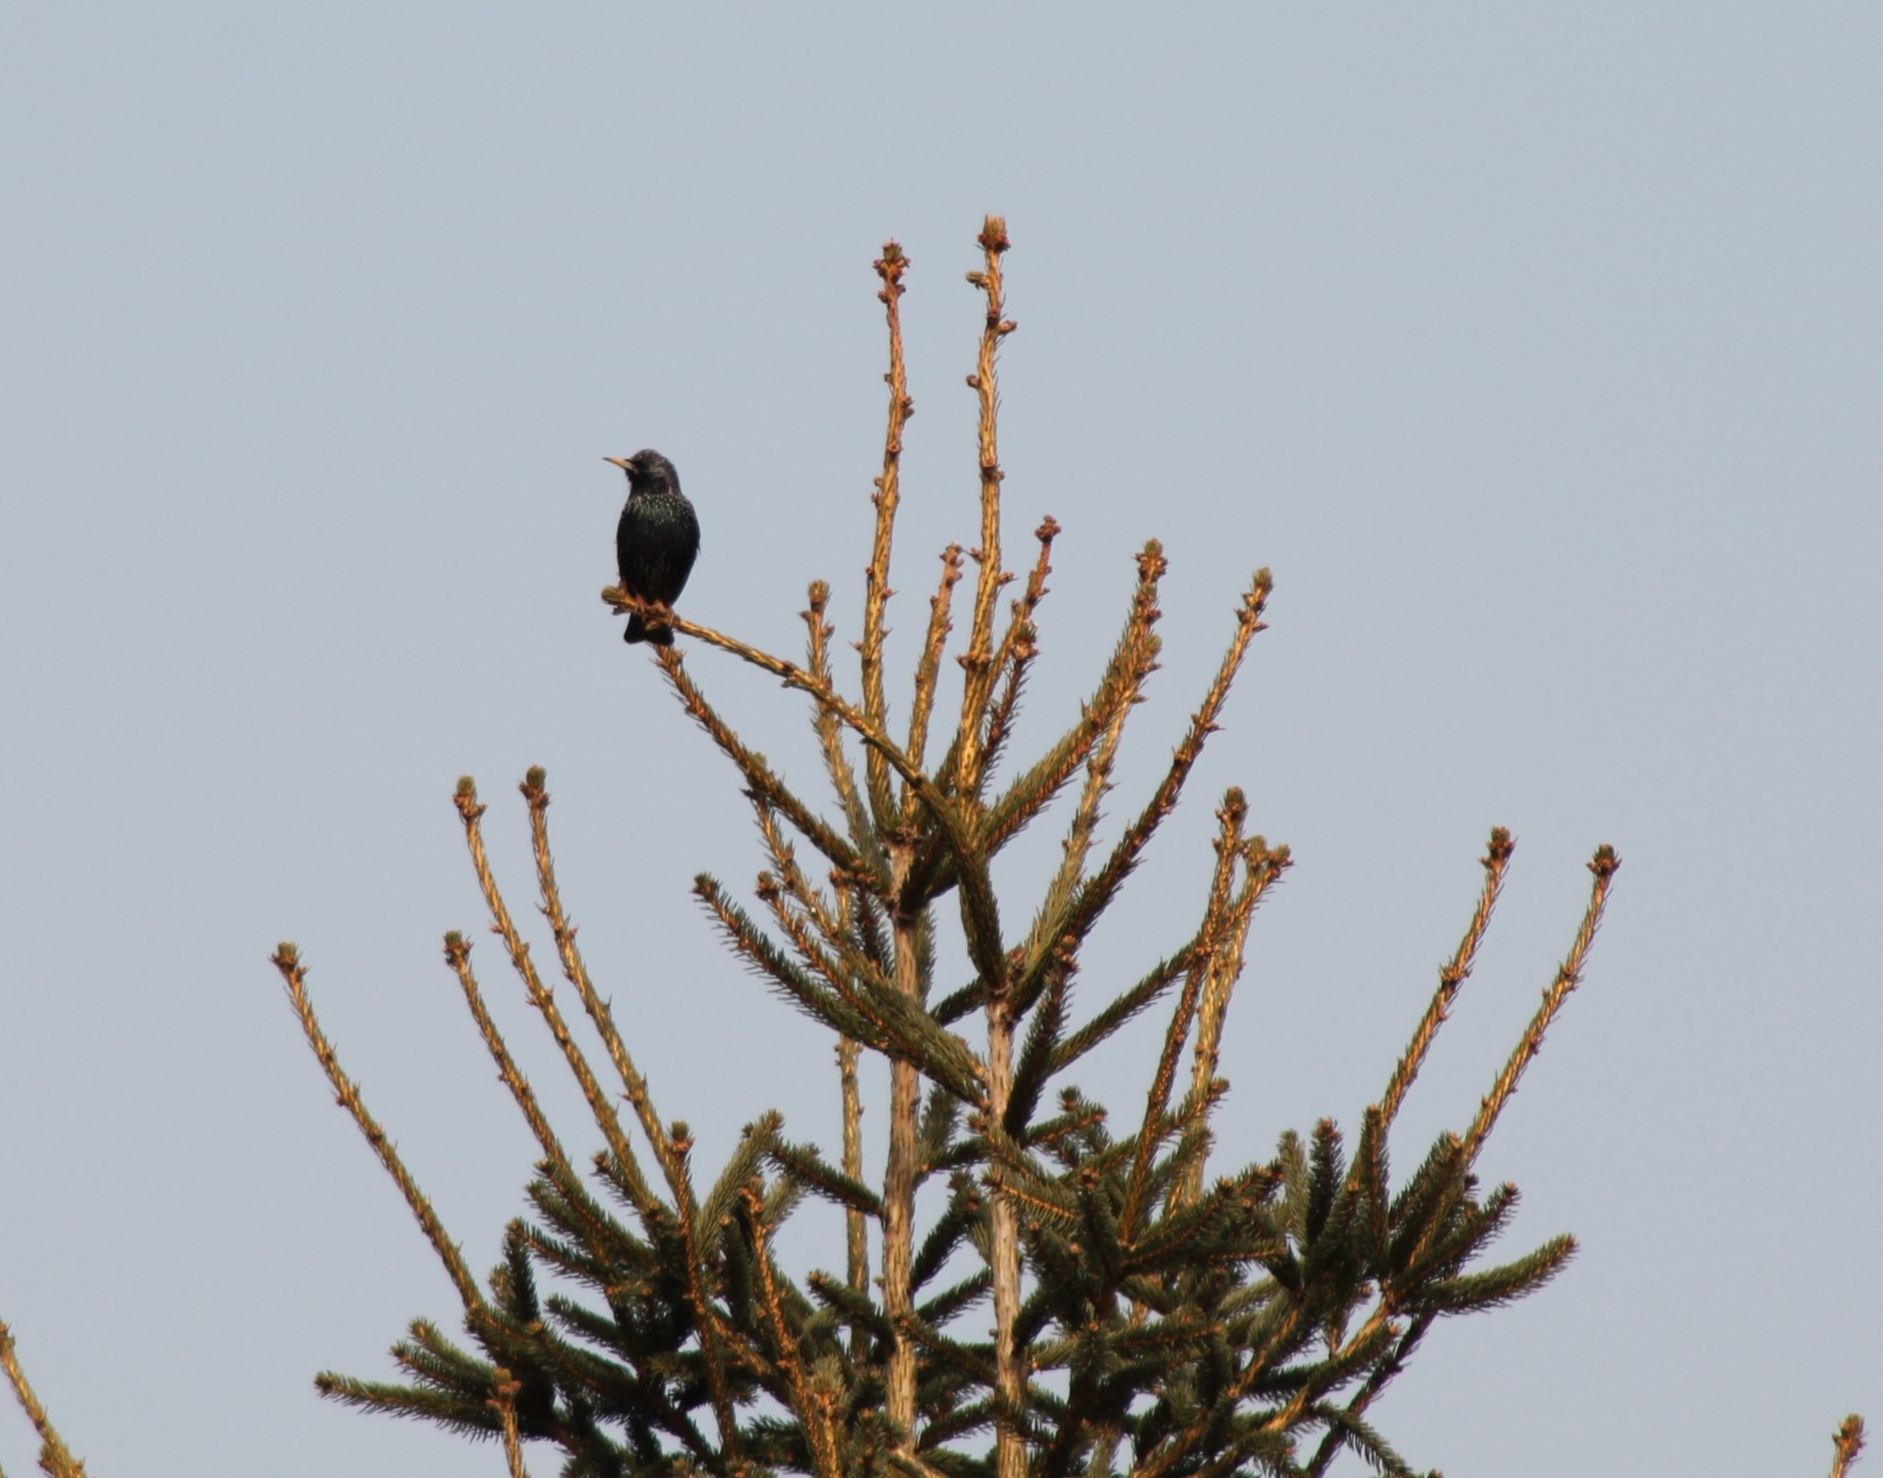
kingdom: Animalia
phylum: Chordata
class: Aves
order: Passeriformes
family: Sturnidae
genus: Sturnus
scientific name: Sturnus vulgaris
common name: Common starling
